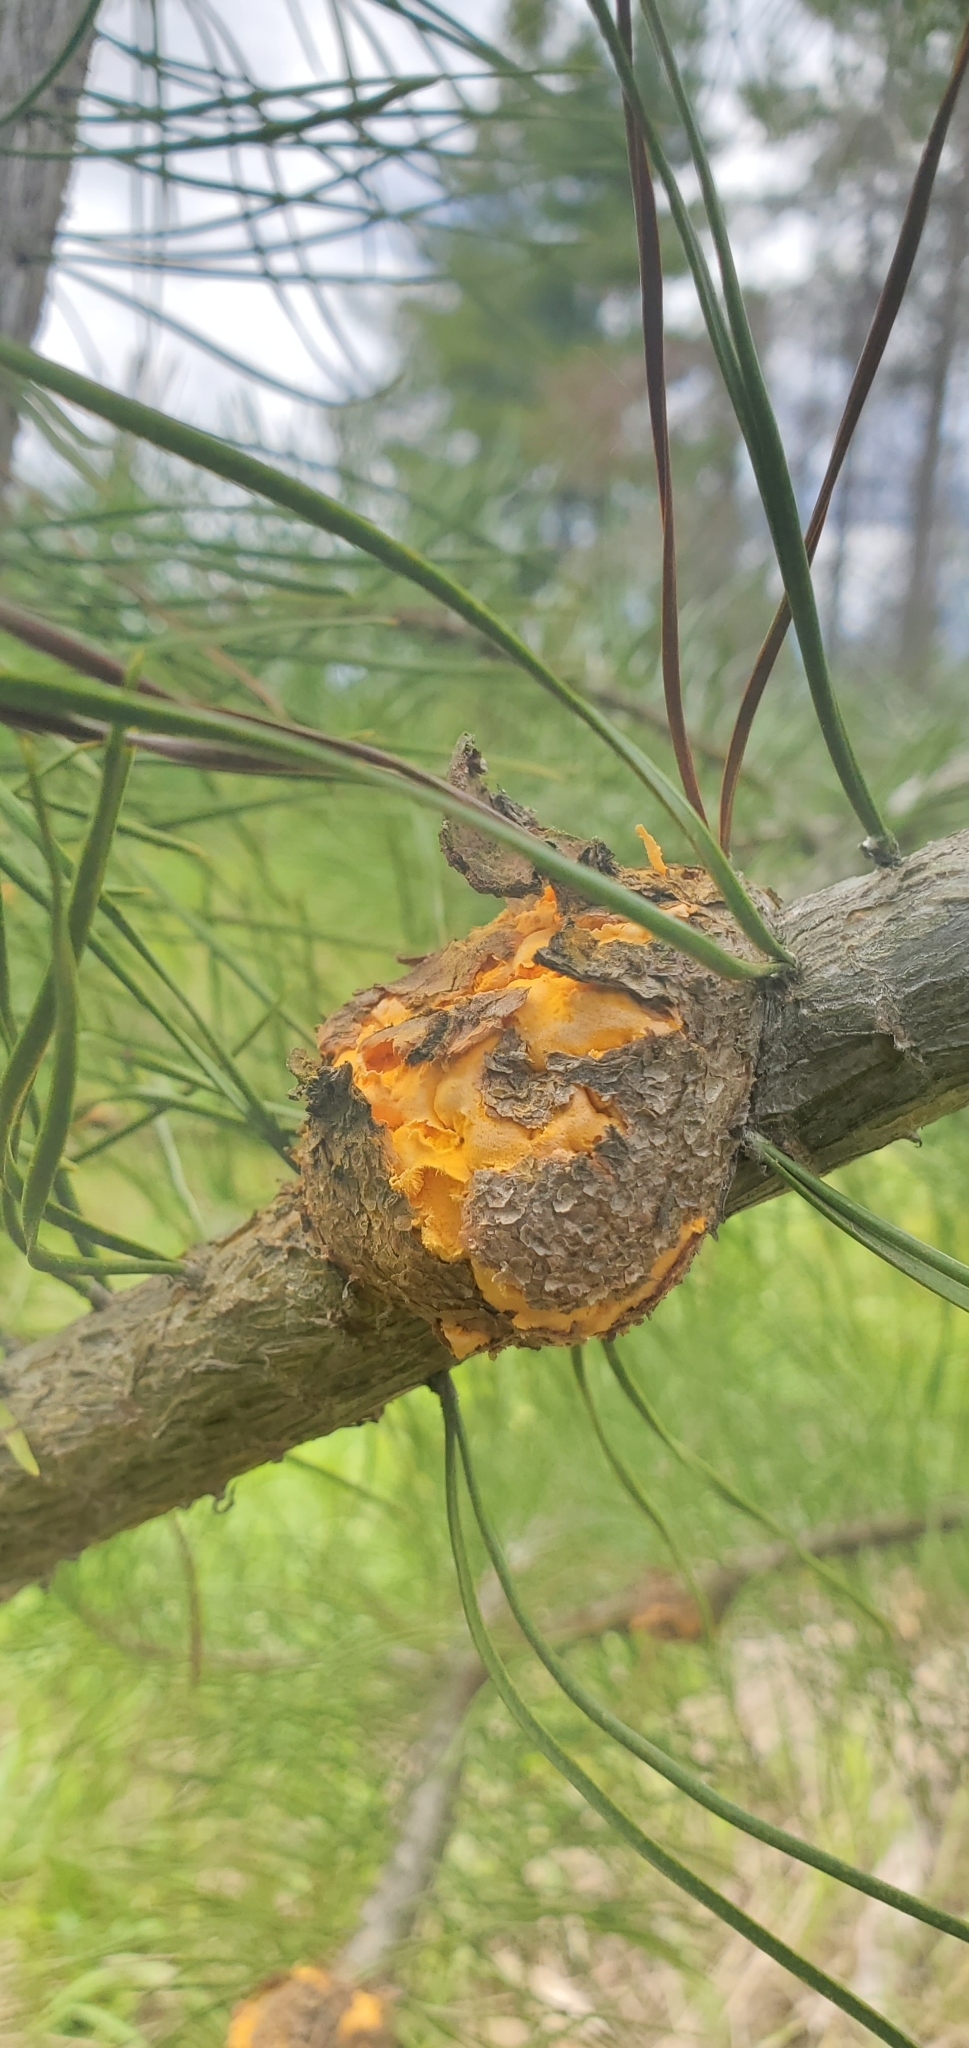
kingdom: Fungi
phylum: Basidiomycota
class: Pucciniomycetes
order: Pucciniales
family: Cronartiaceae
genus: Cronartium
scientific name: Cronartium harknessii
